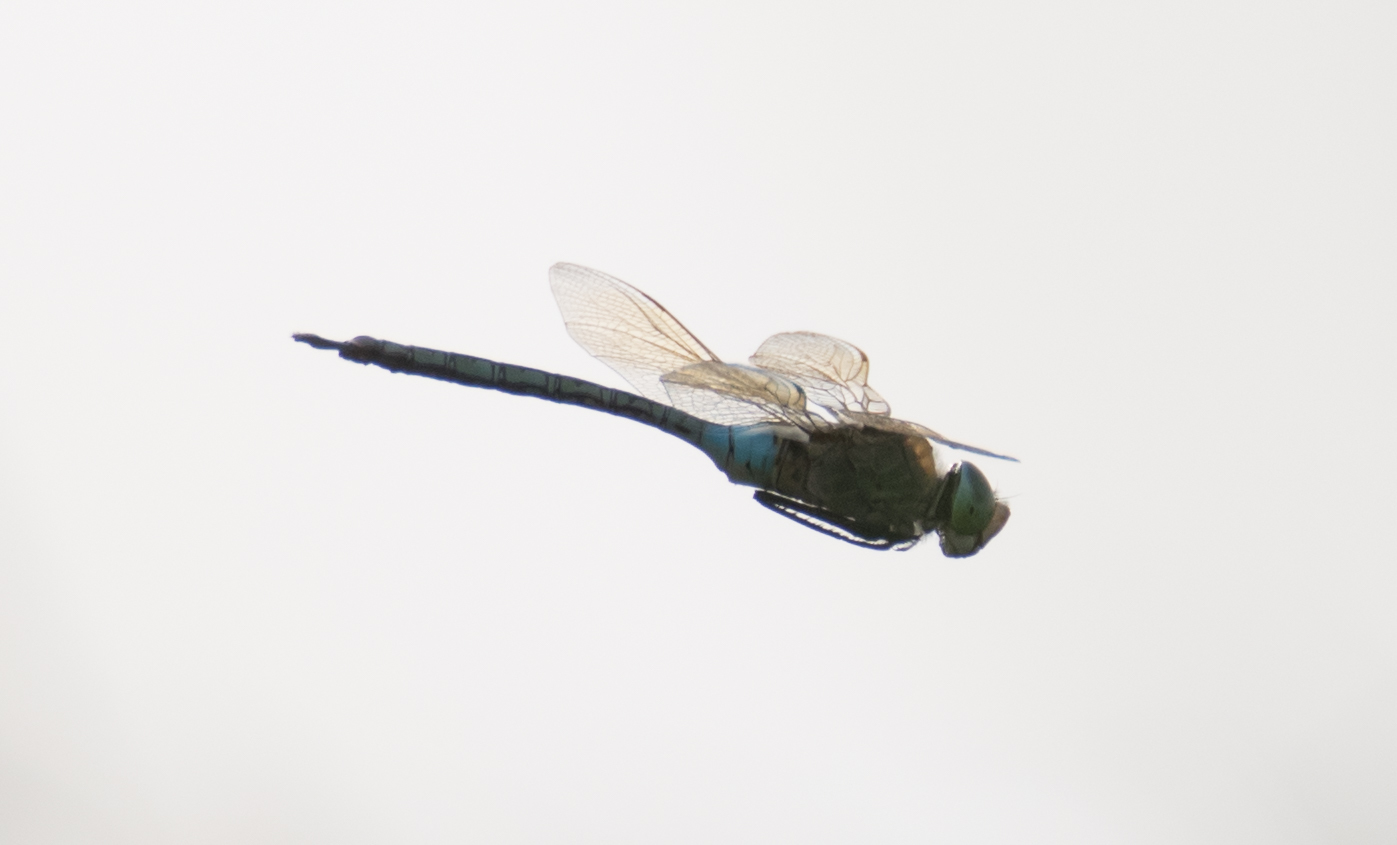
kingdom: Animalia
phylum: Arthropoda
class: Insecta
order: Odonata
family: Aeshnidae
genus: Anax
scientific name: Anax parthenope
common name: Lesser emperor
